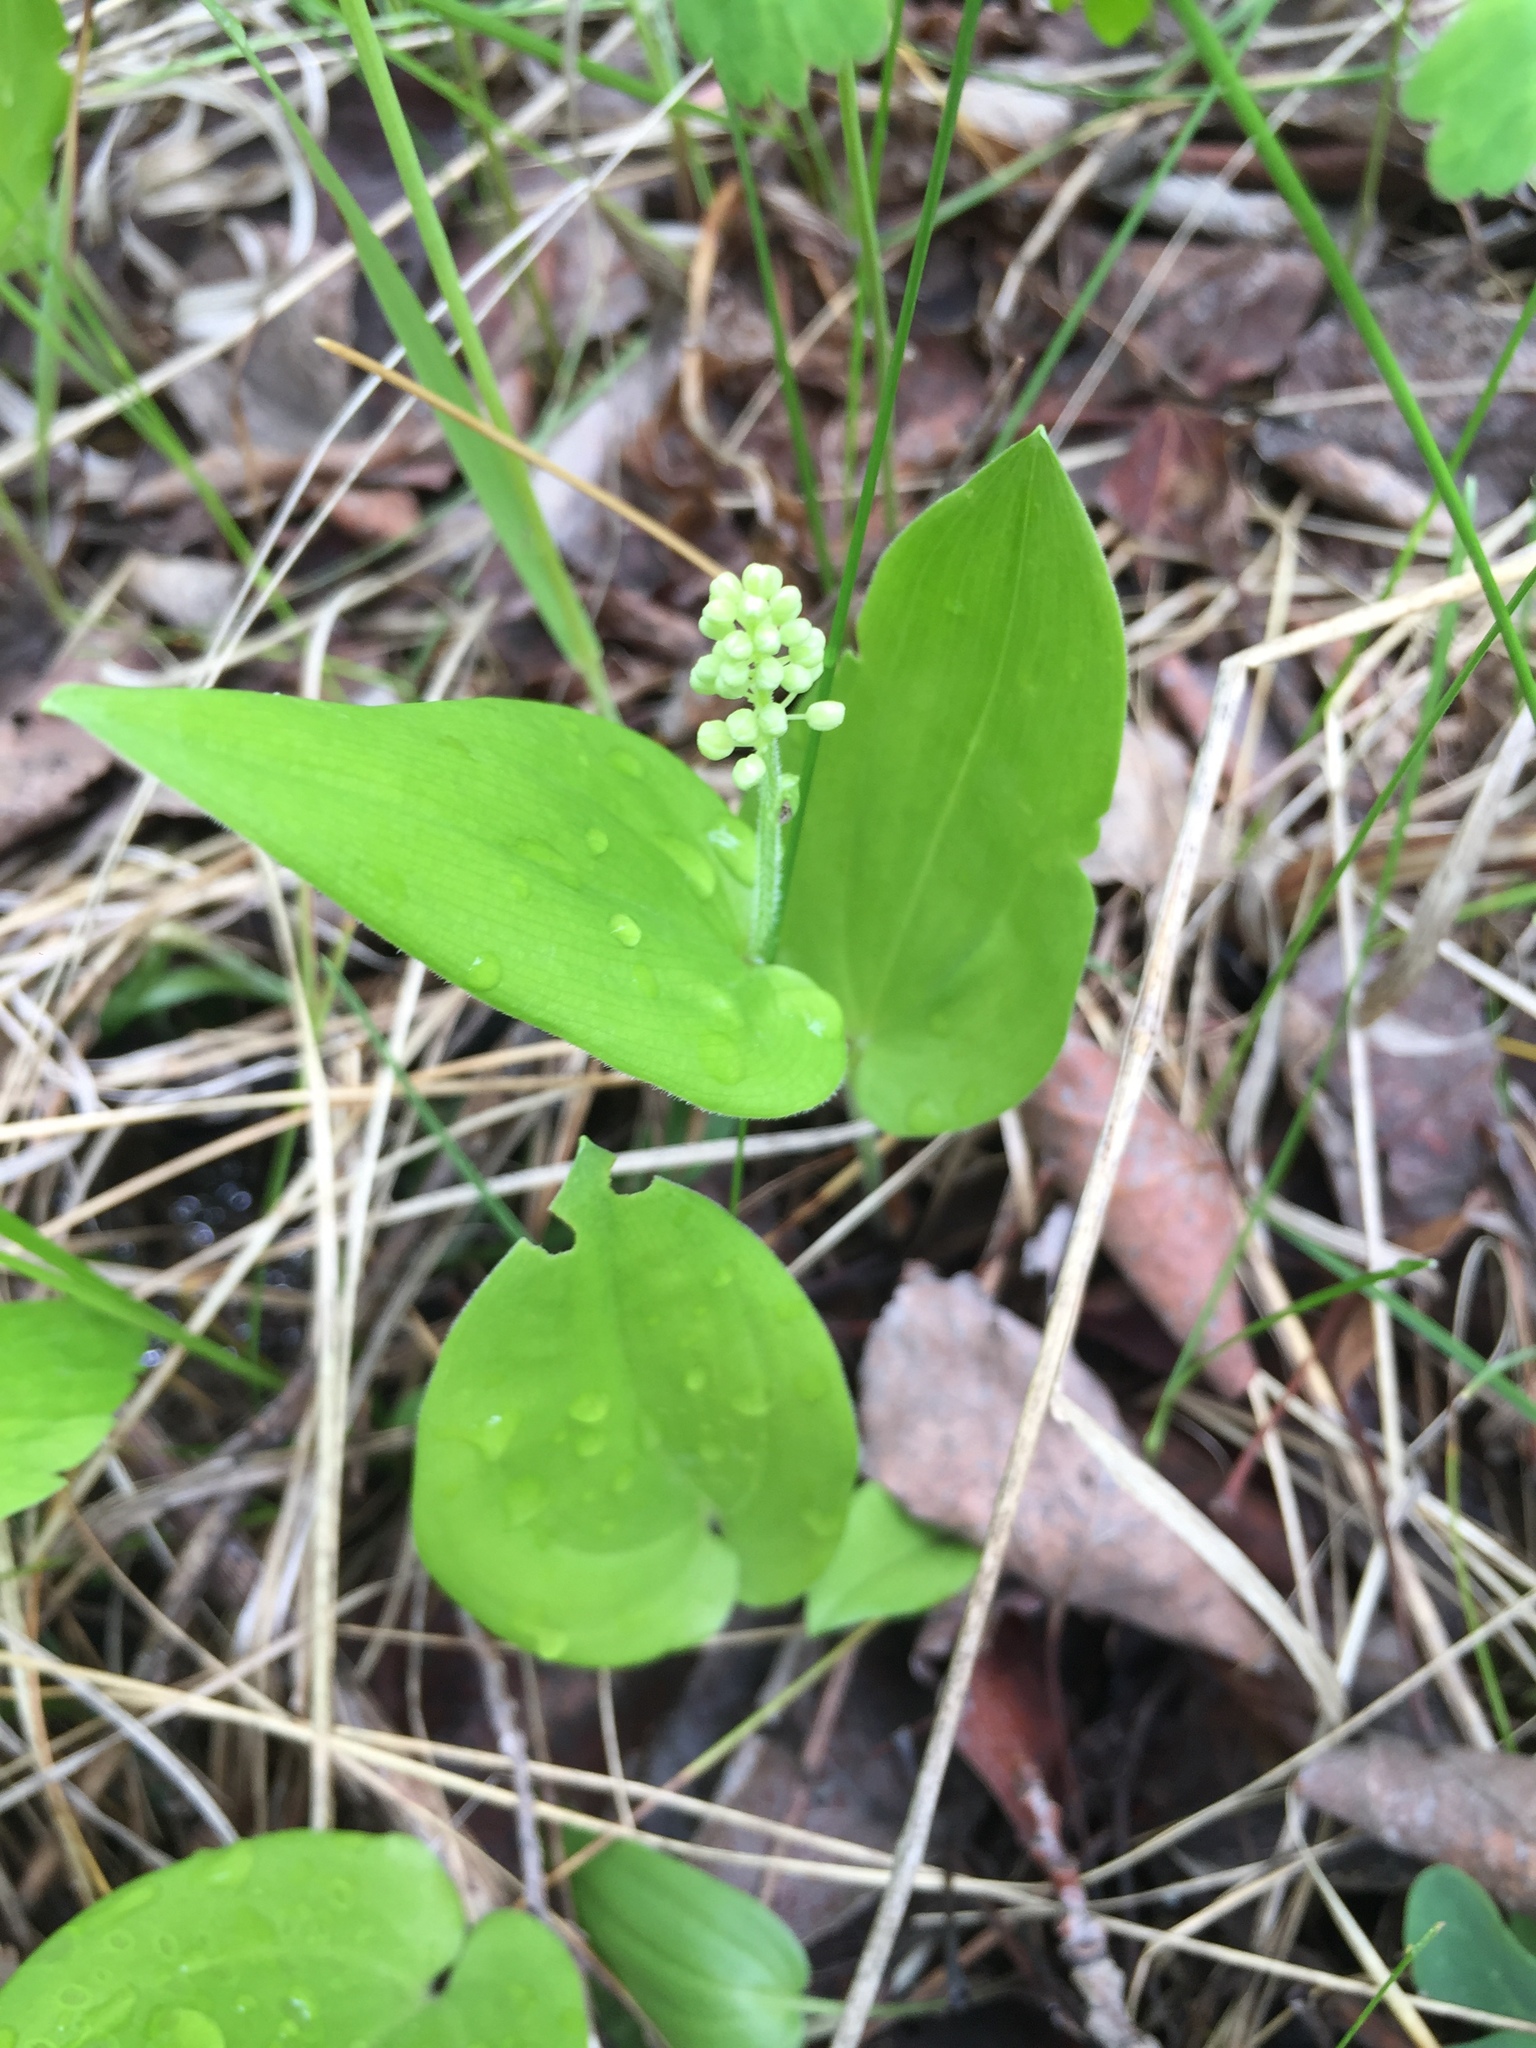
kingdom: Plantae
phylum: Tracheophyta
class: Liliopsida
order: Asparagales
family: Asparagaceae
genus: Maianthemum
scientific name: Maianthemum canadense
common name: False lily-of-the-valley
